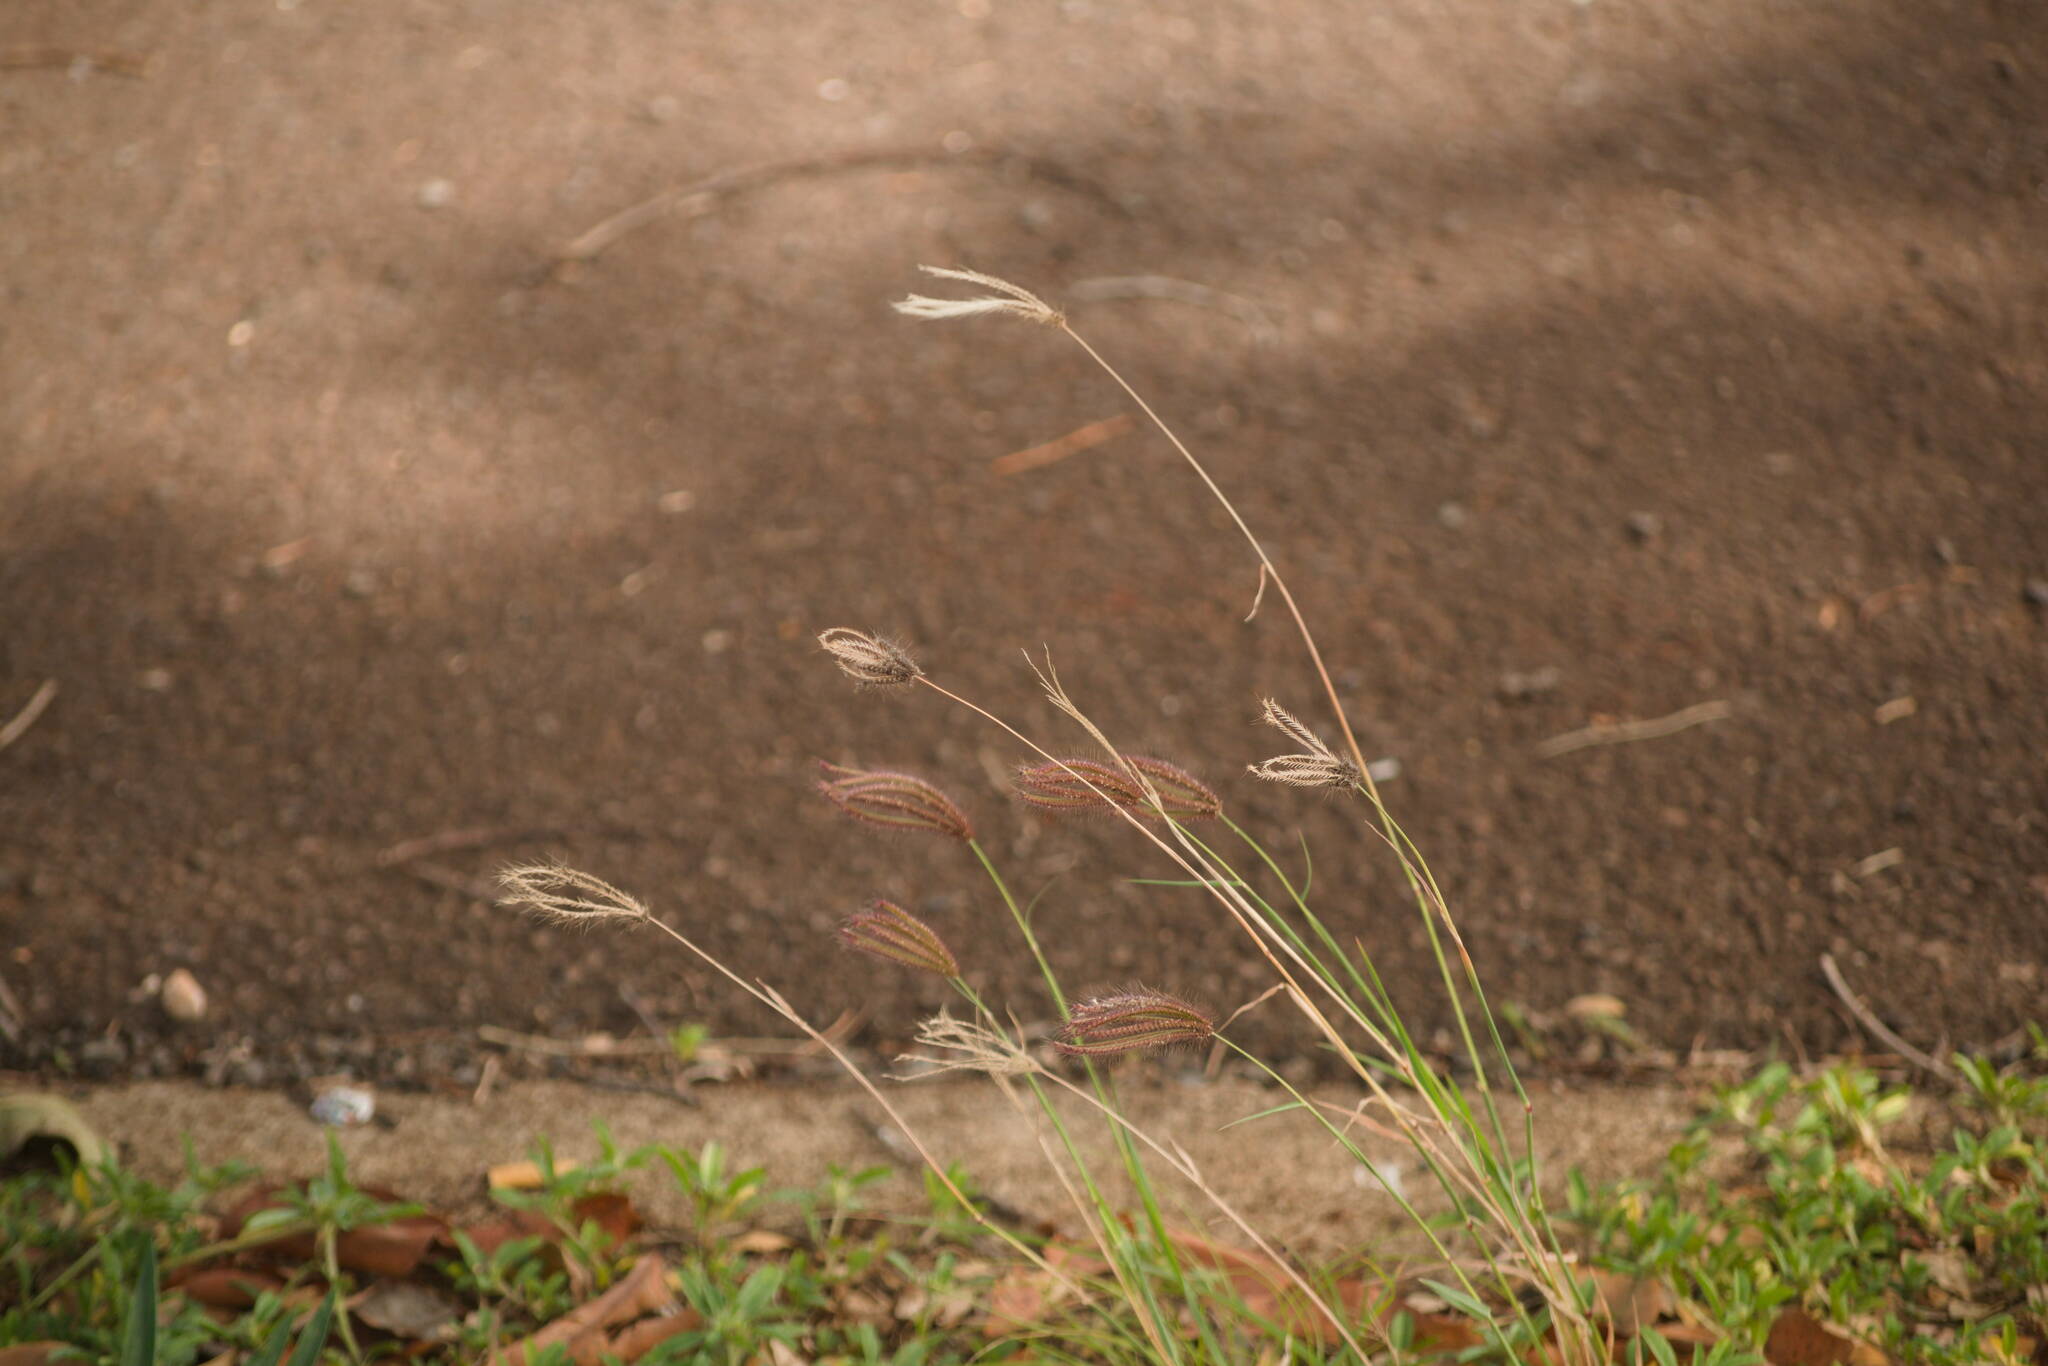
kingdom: Plantae
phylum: Tracheophyta
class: Liliopsida
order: Poales
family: Poaceae
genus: Chloris
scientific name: Chloris barbata
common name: Swollen fingergrass
